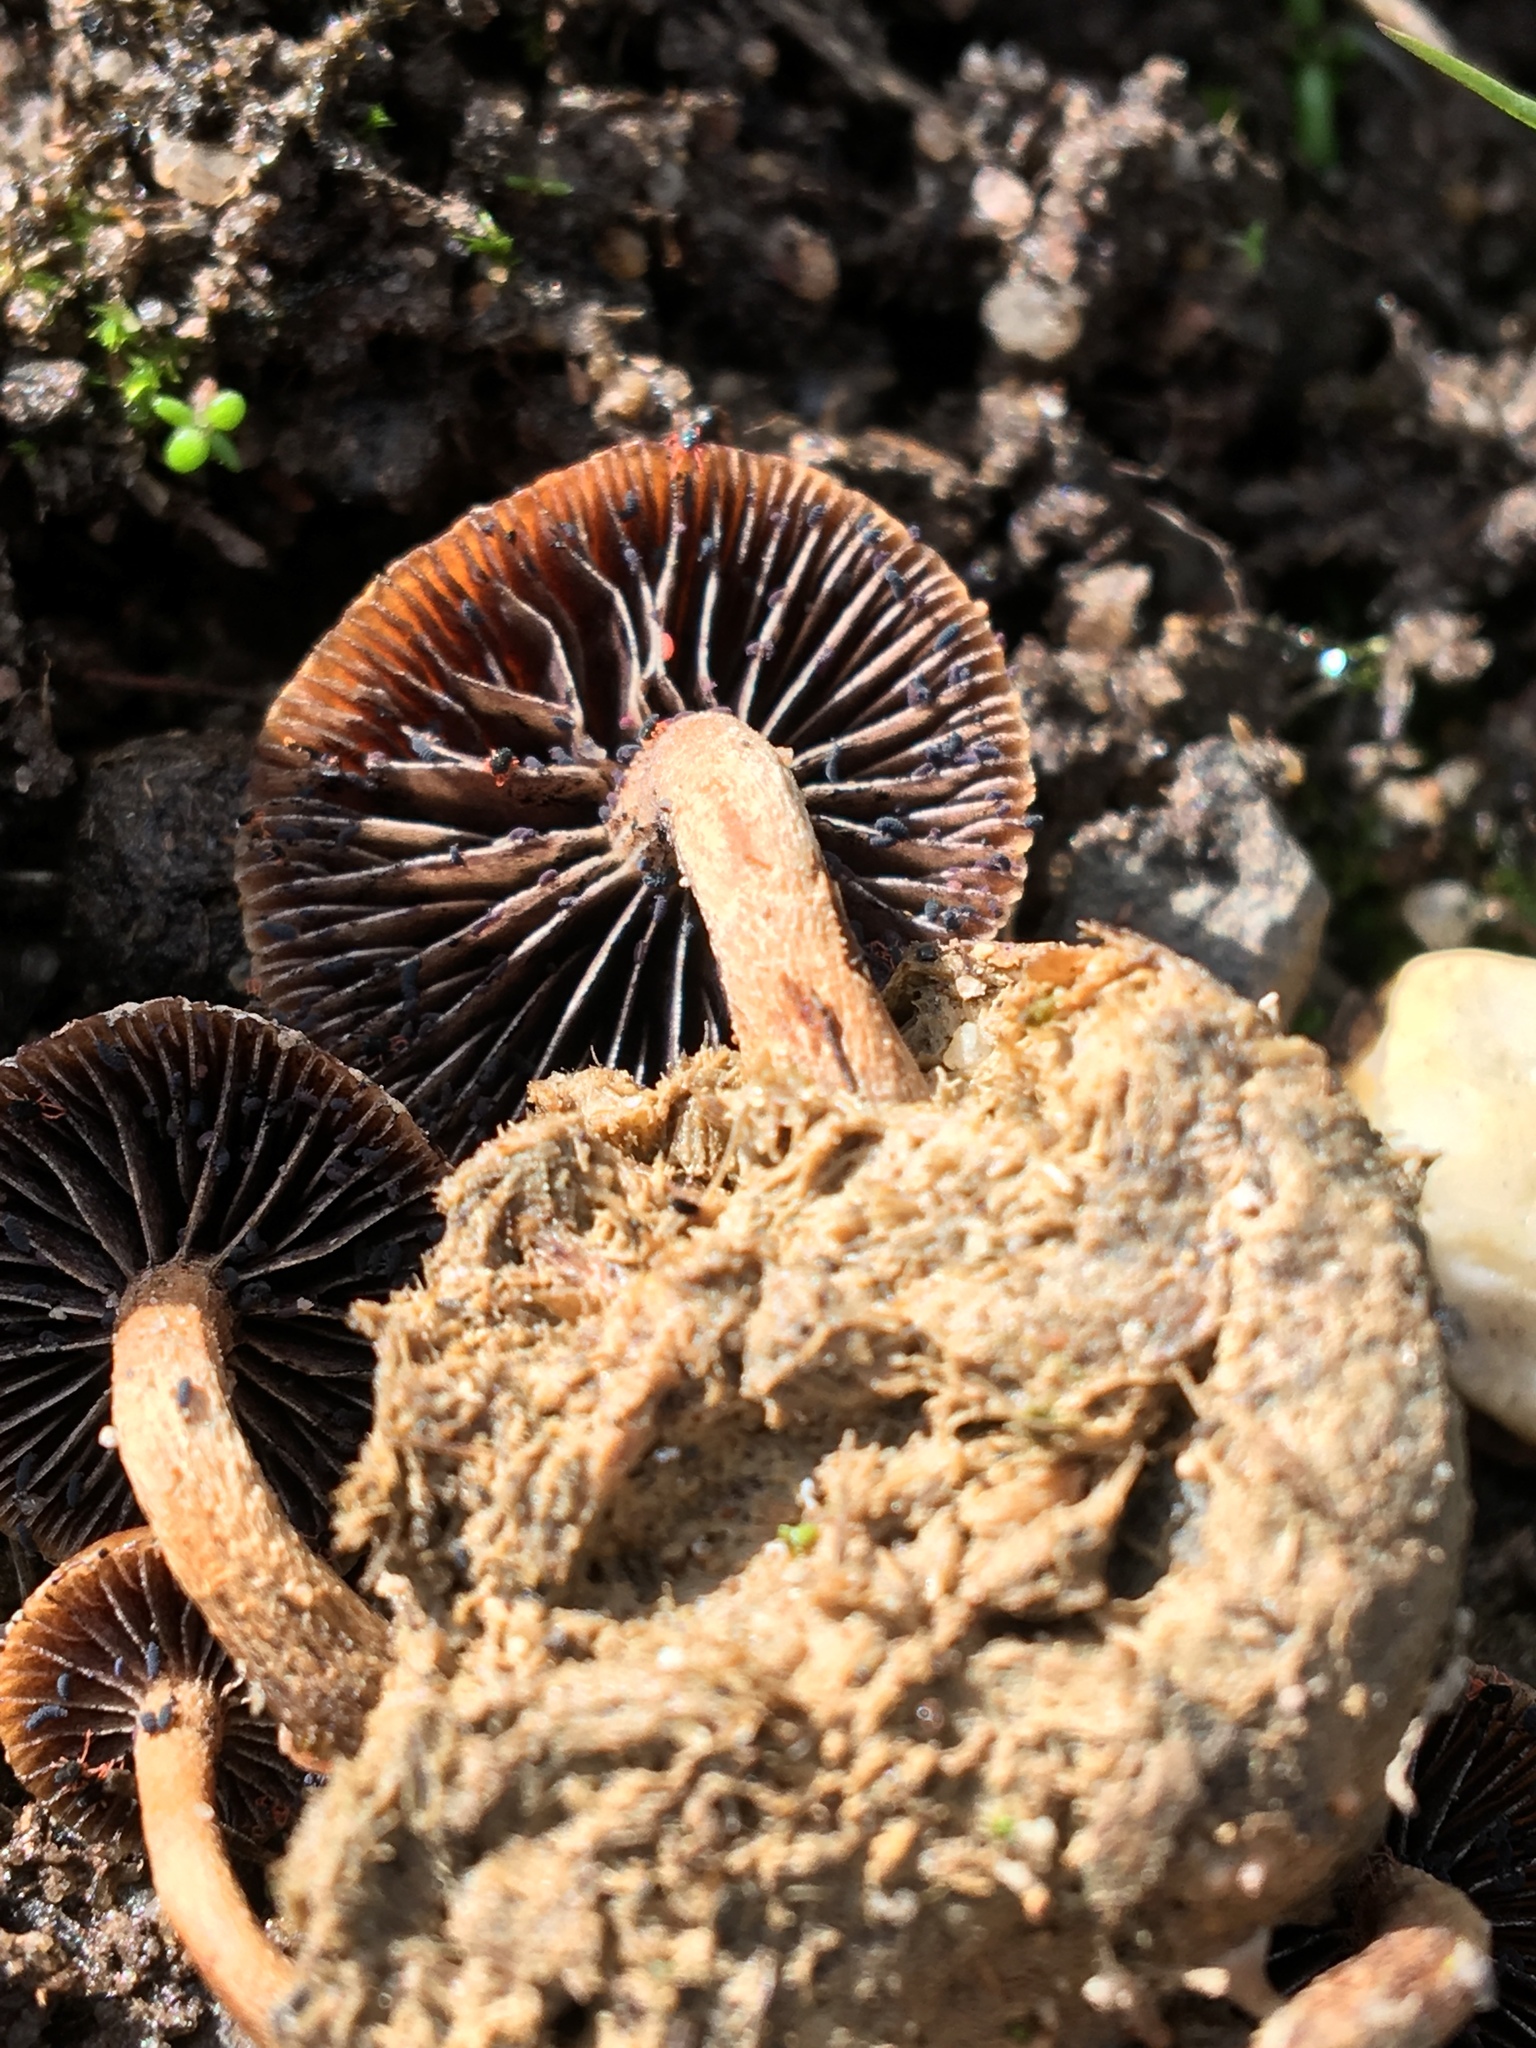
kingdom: Fungi
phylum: Basidiomycota
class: Agaricomycetes
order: Agaricales
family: Strophariaceae
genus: Deconica
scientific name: Deconica coprophila
